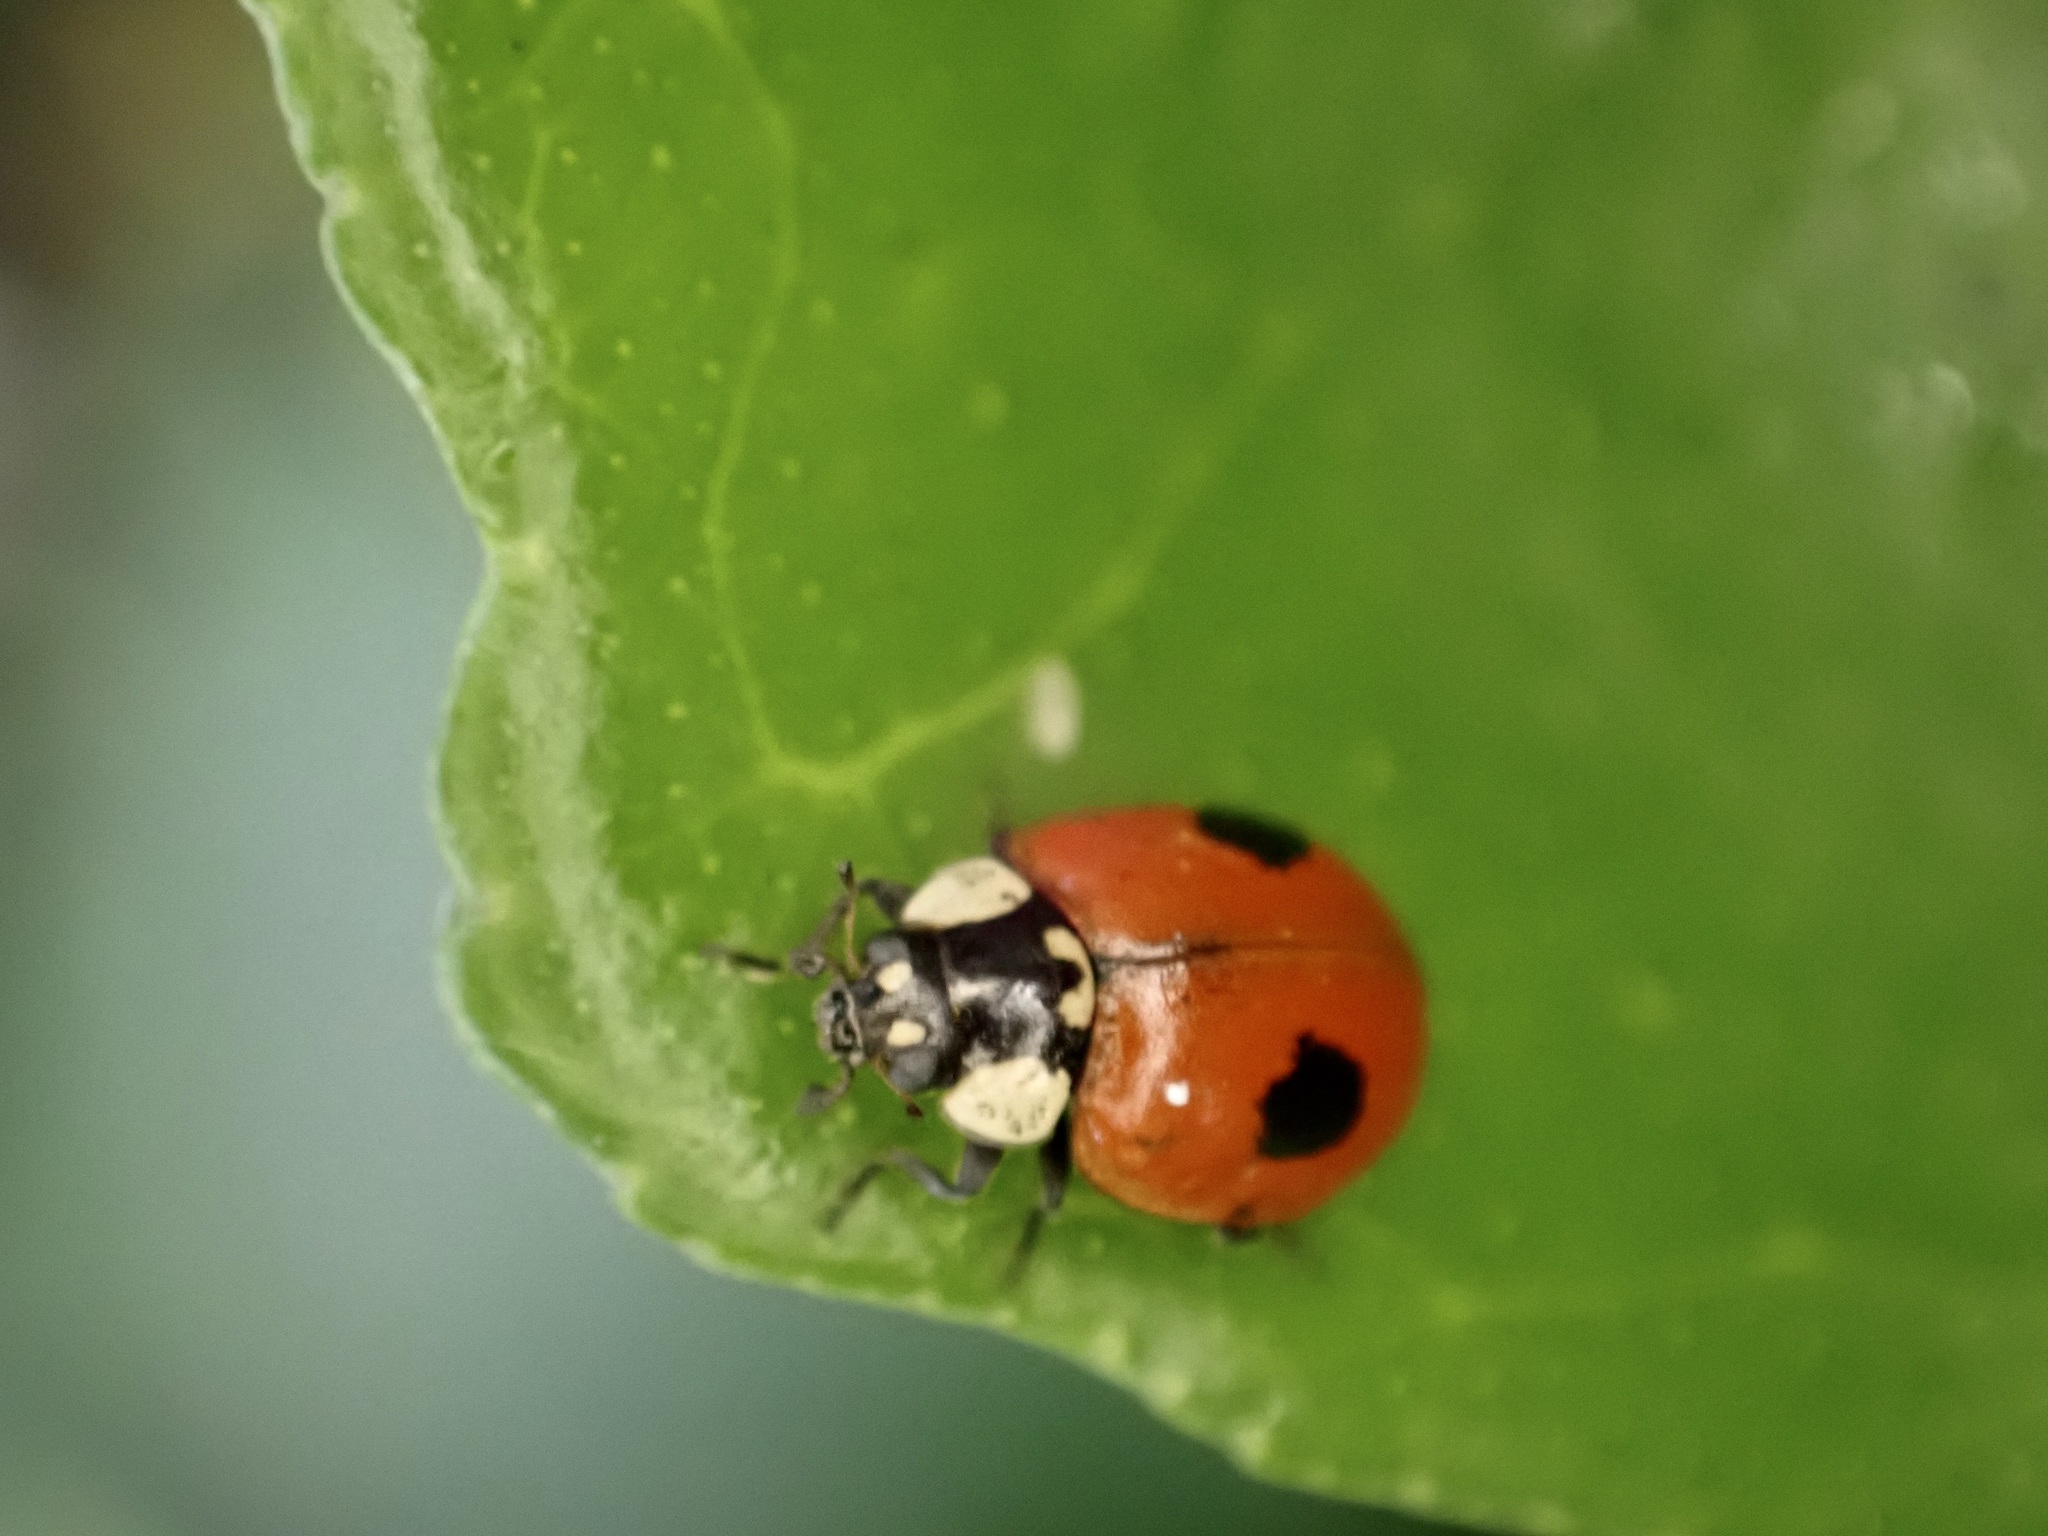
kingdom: Animalia
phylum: Arthropoda
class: Insecta
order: Coleoptera
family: Coccinellidae
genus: Adalia
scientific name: Adalia bipunctata
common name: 2-spot ladybird
